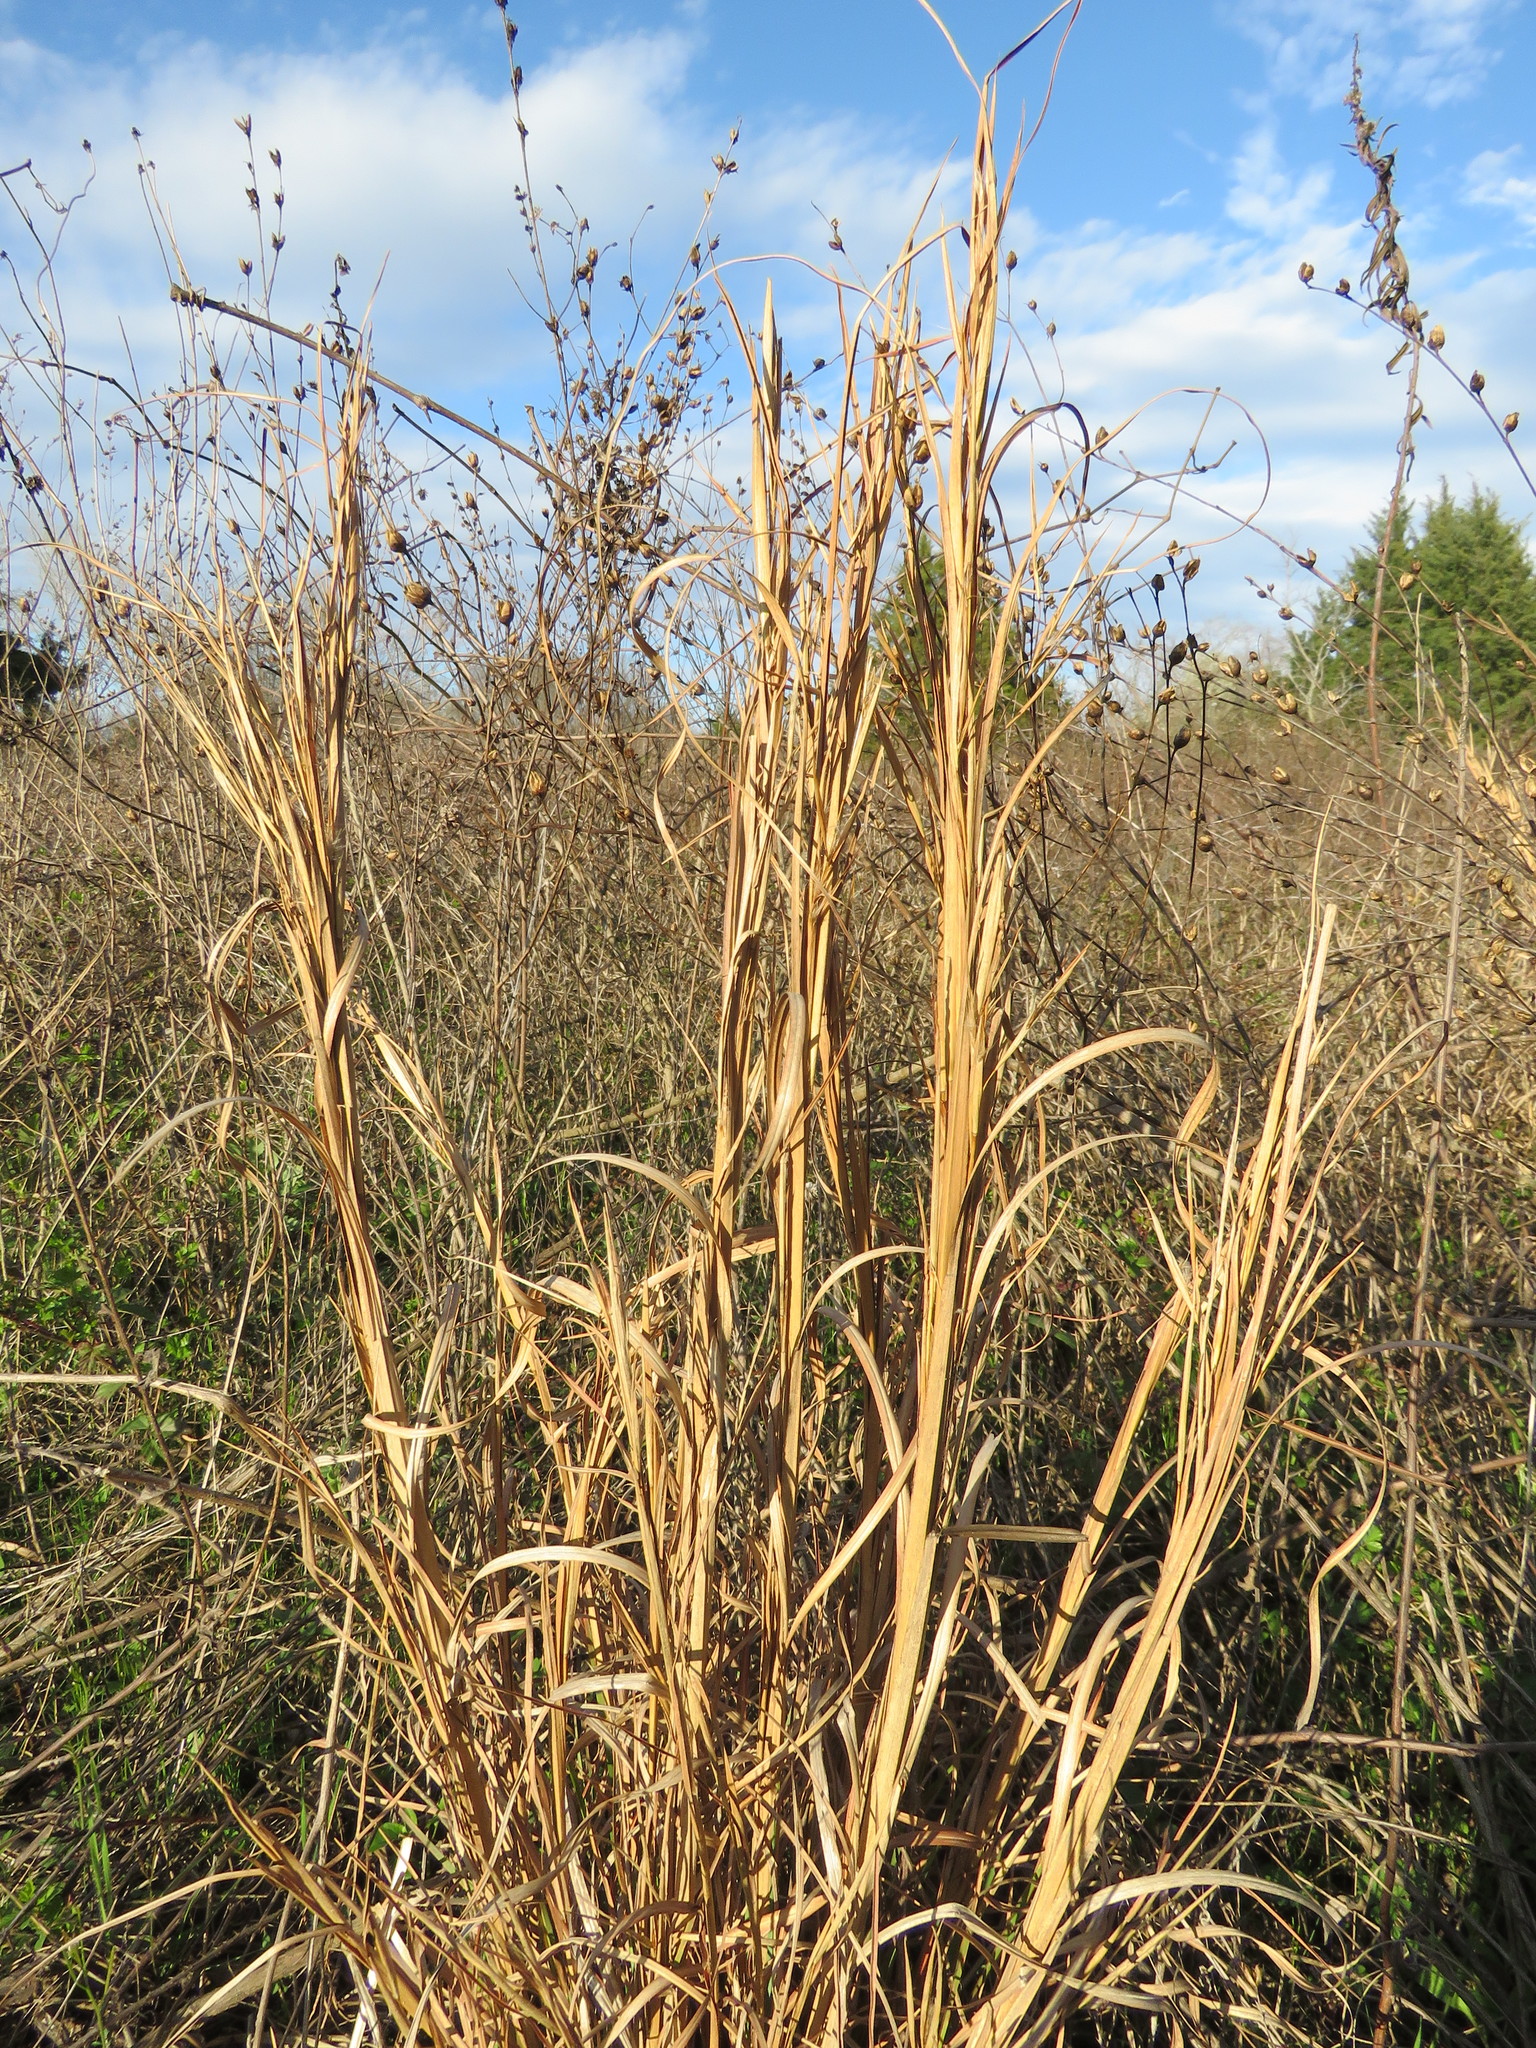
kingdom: Plantae
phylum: Tracheophyta
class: Liliopsida
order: Poales
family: Poaceae
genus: Andropogon
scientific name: Andropogon virginicus
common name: Broomsedge bluestem
